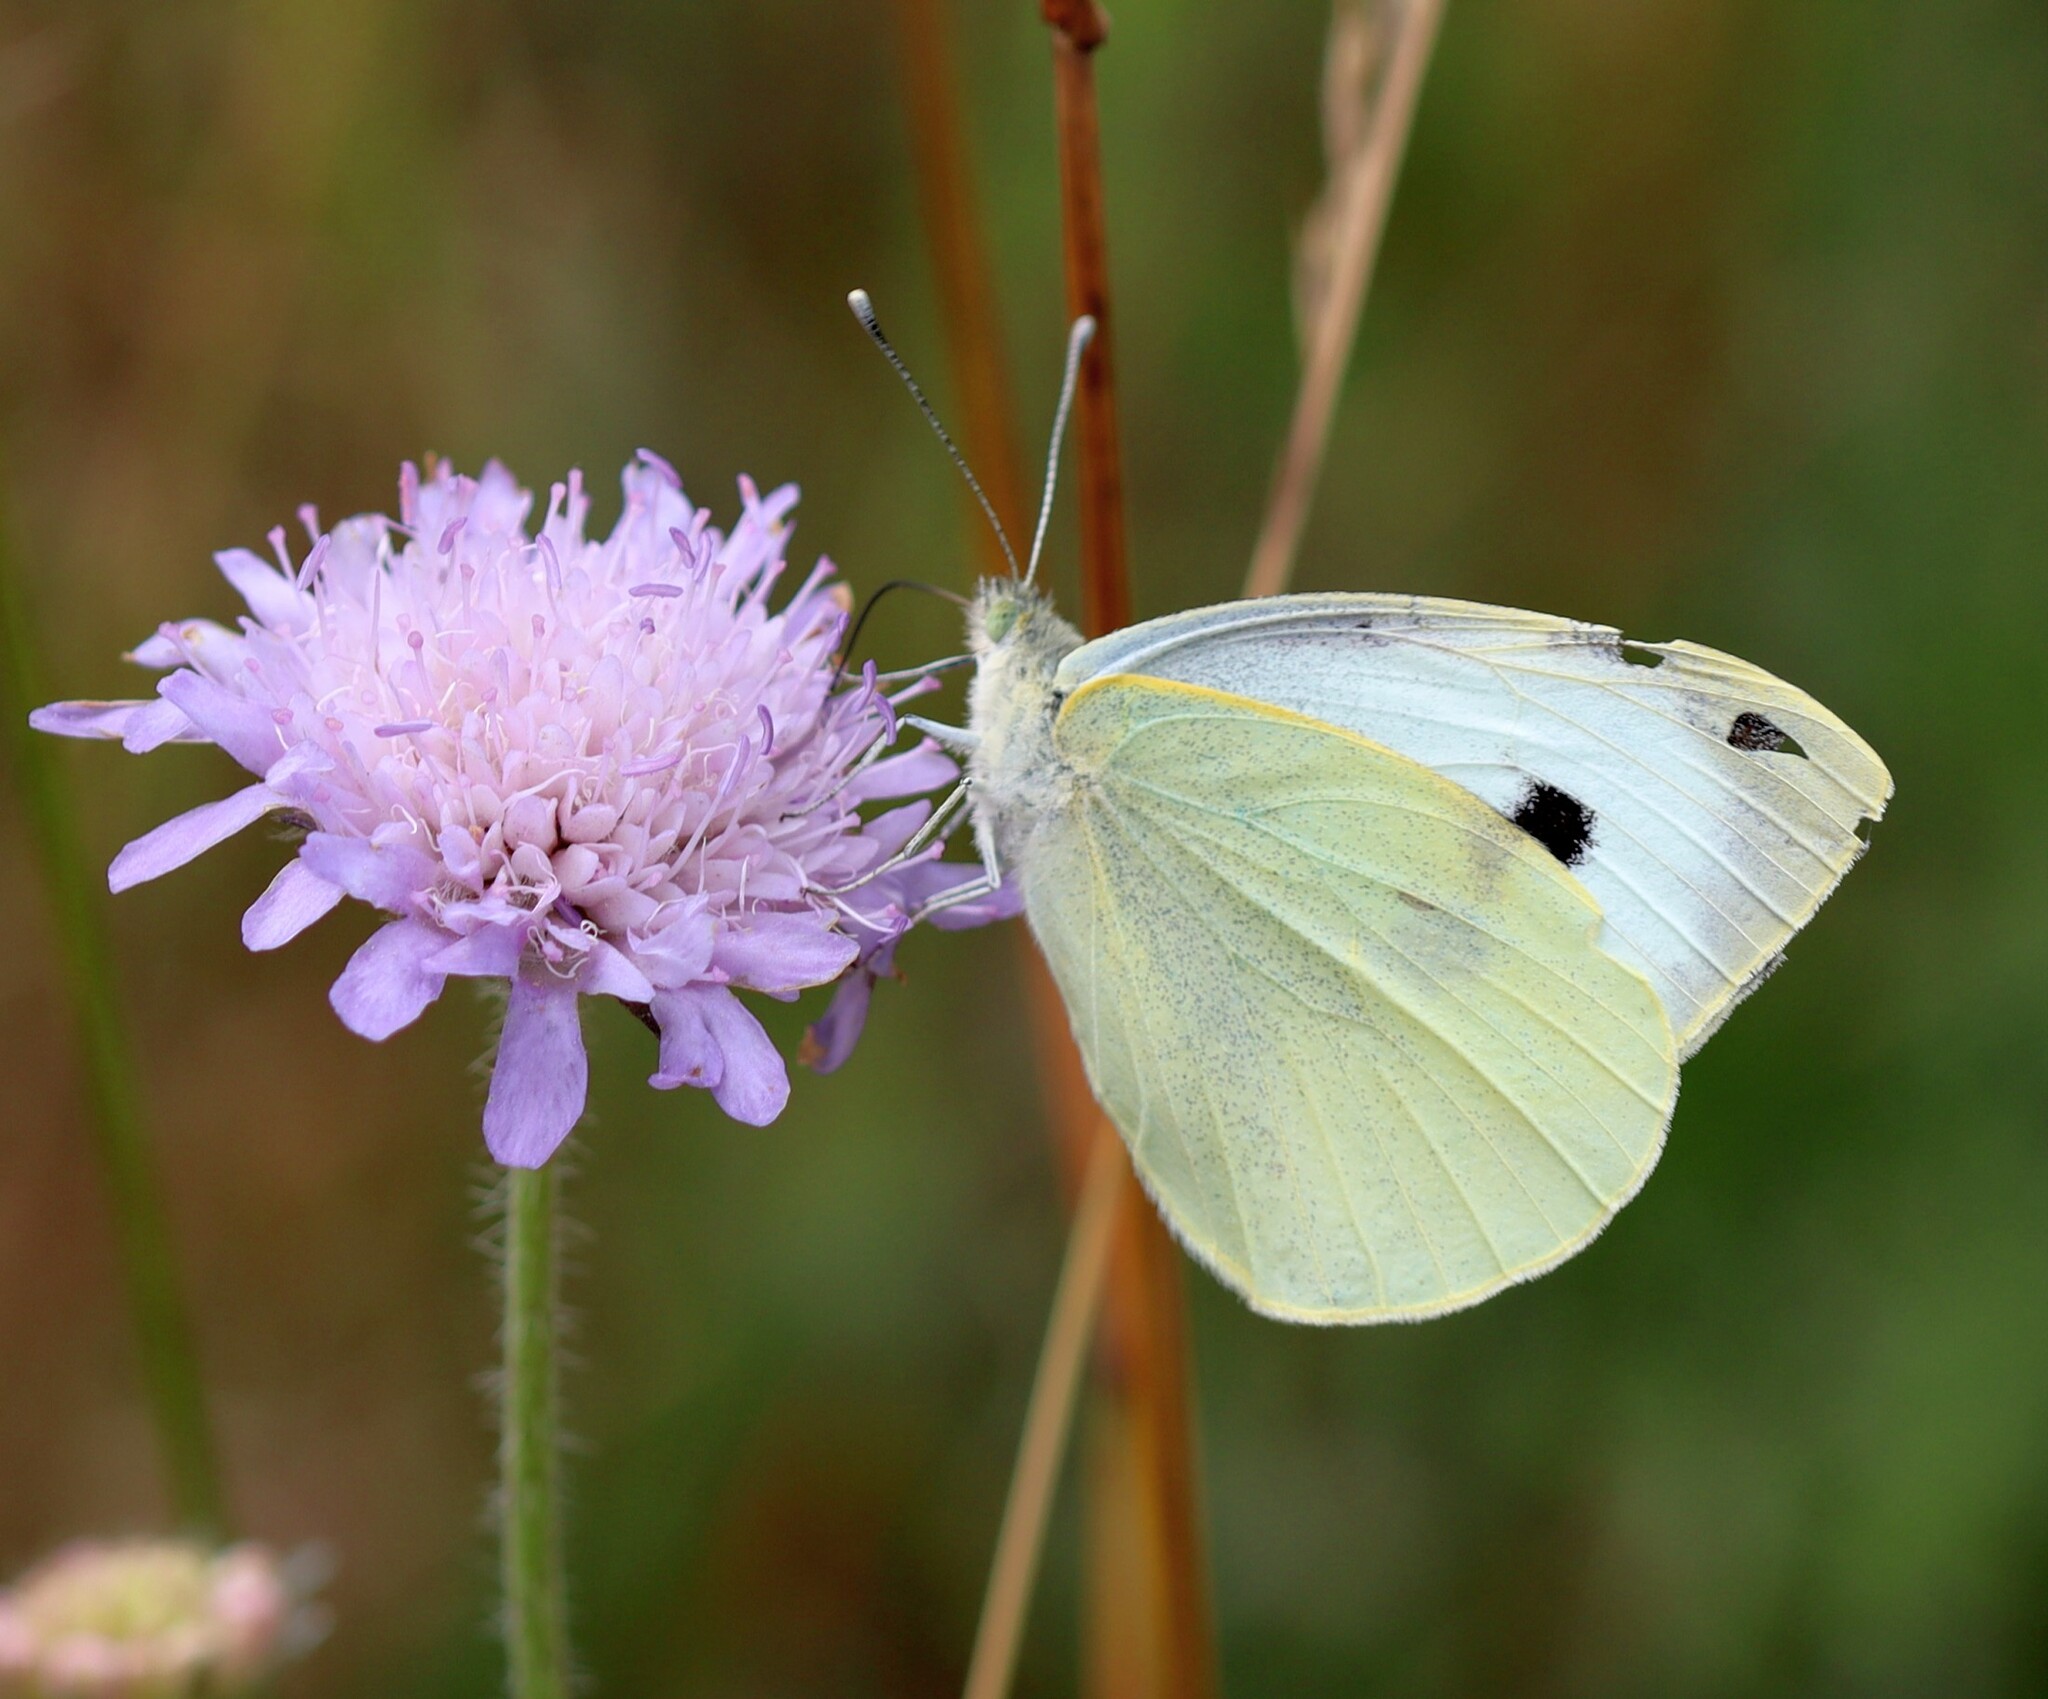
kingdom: Animalia
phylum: Arthropoda
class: Insecta
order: Lepidoptera
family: Pieridae
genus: Pieris
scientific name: Pieris brassicae
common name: Large white
